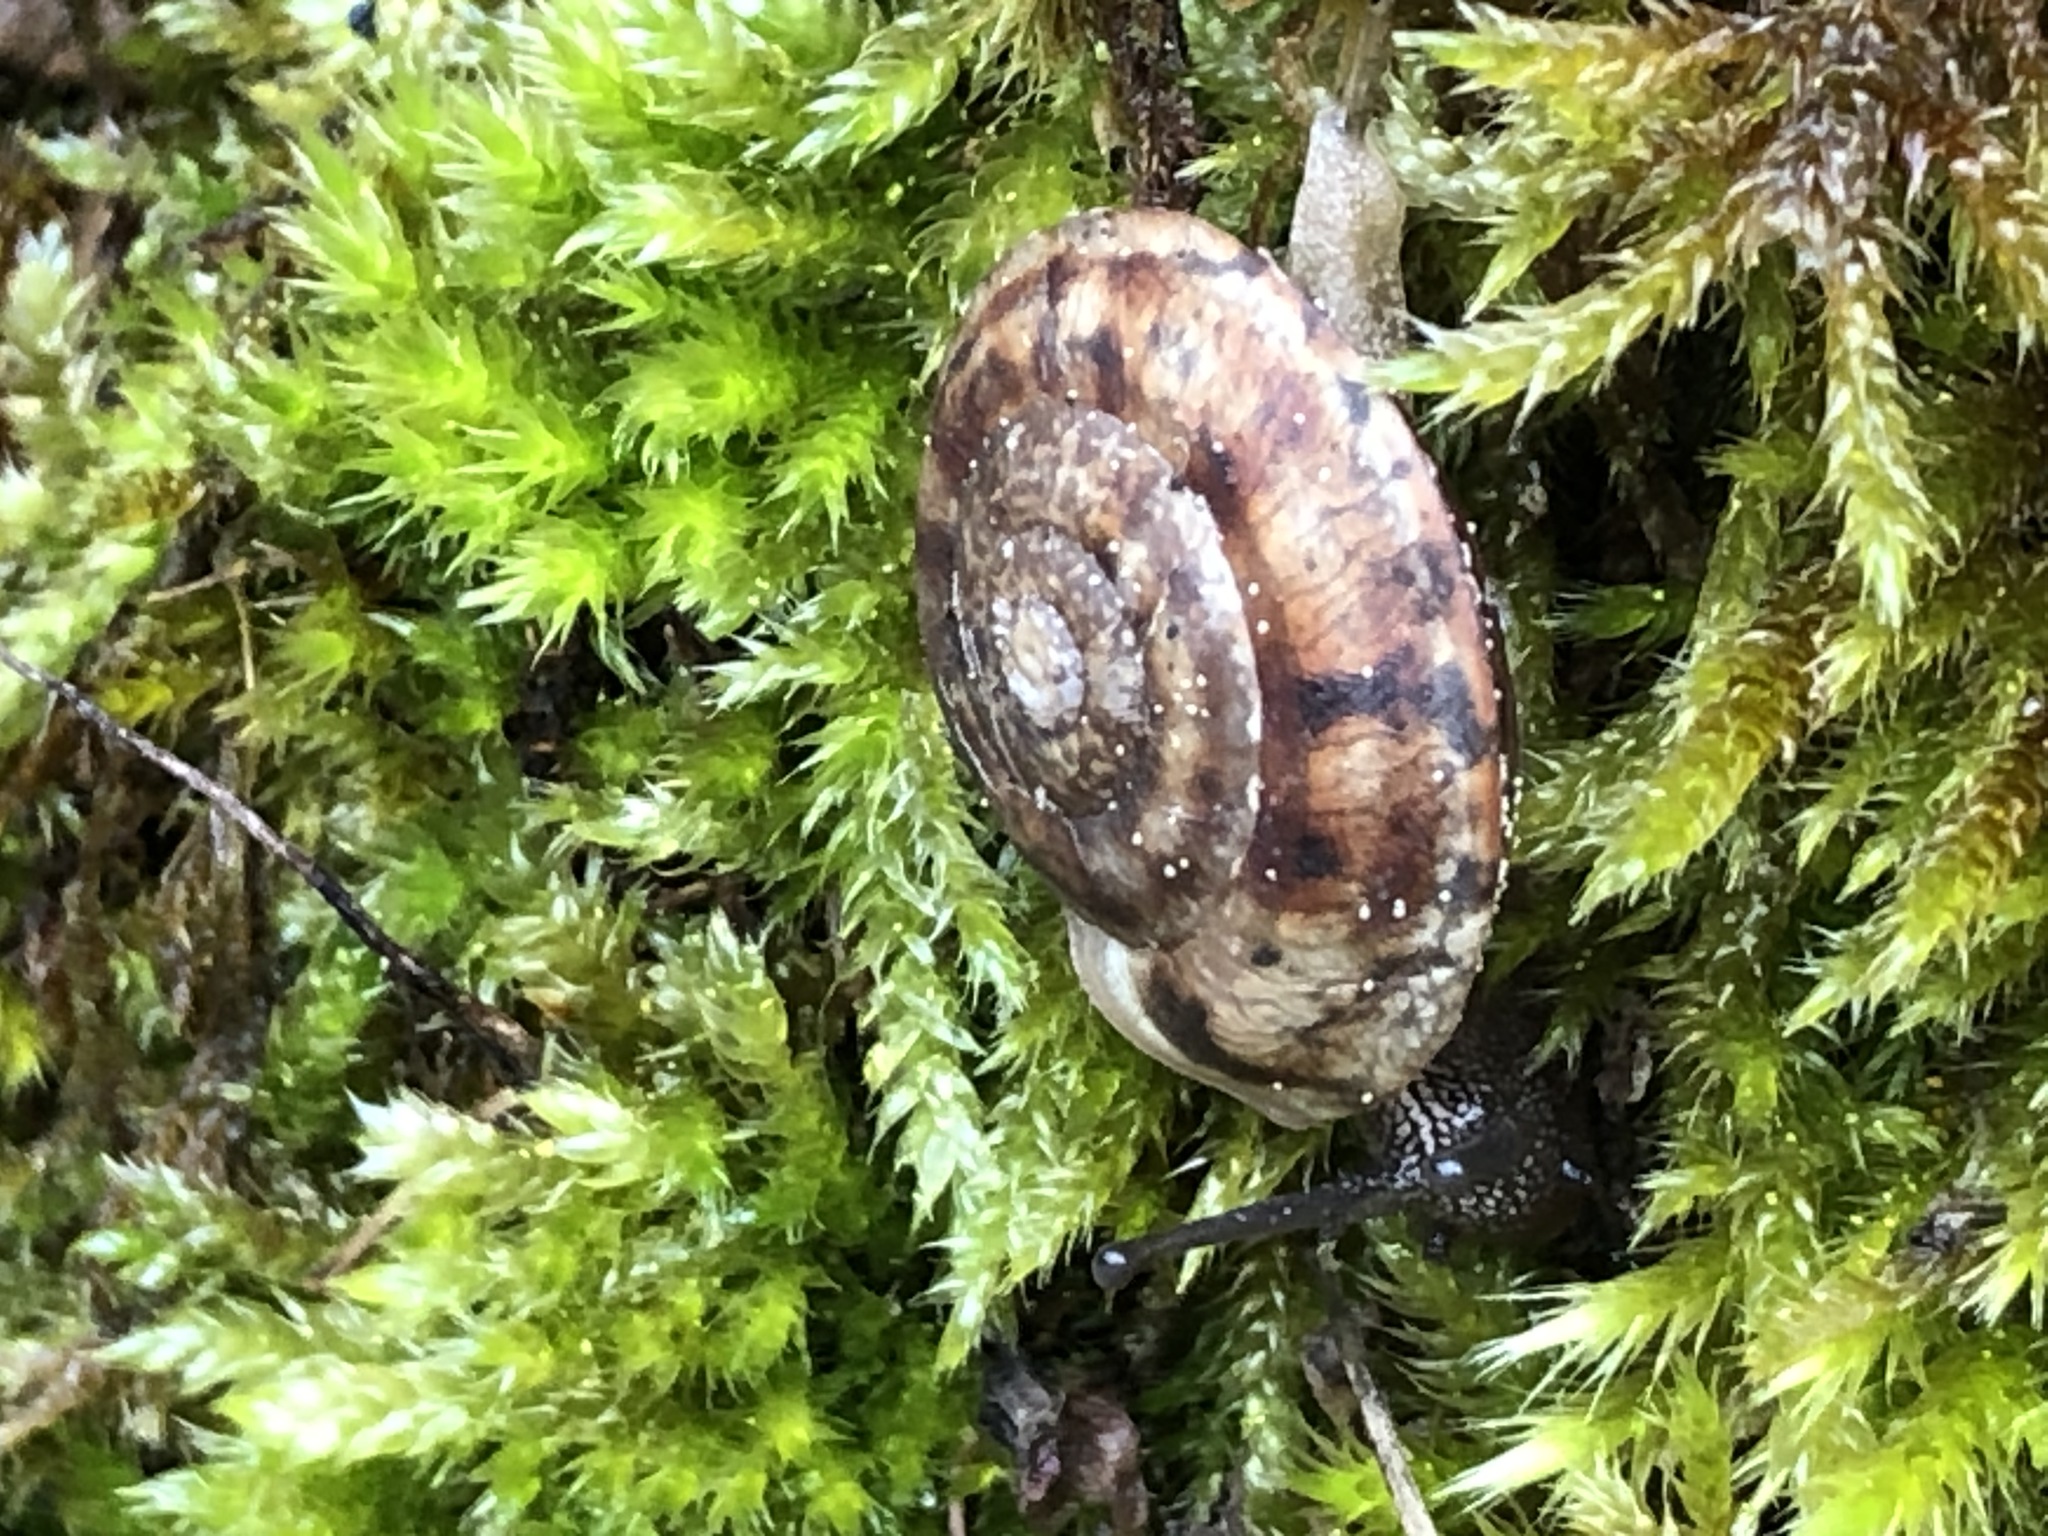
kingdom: Animalia
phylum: Mollusca
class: Gastropoda
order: Stylommatophora
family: Helicidae
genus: Helicigona
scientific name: Helicigona lapicida
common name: Lapidary snail
